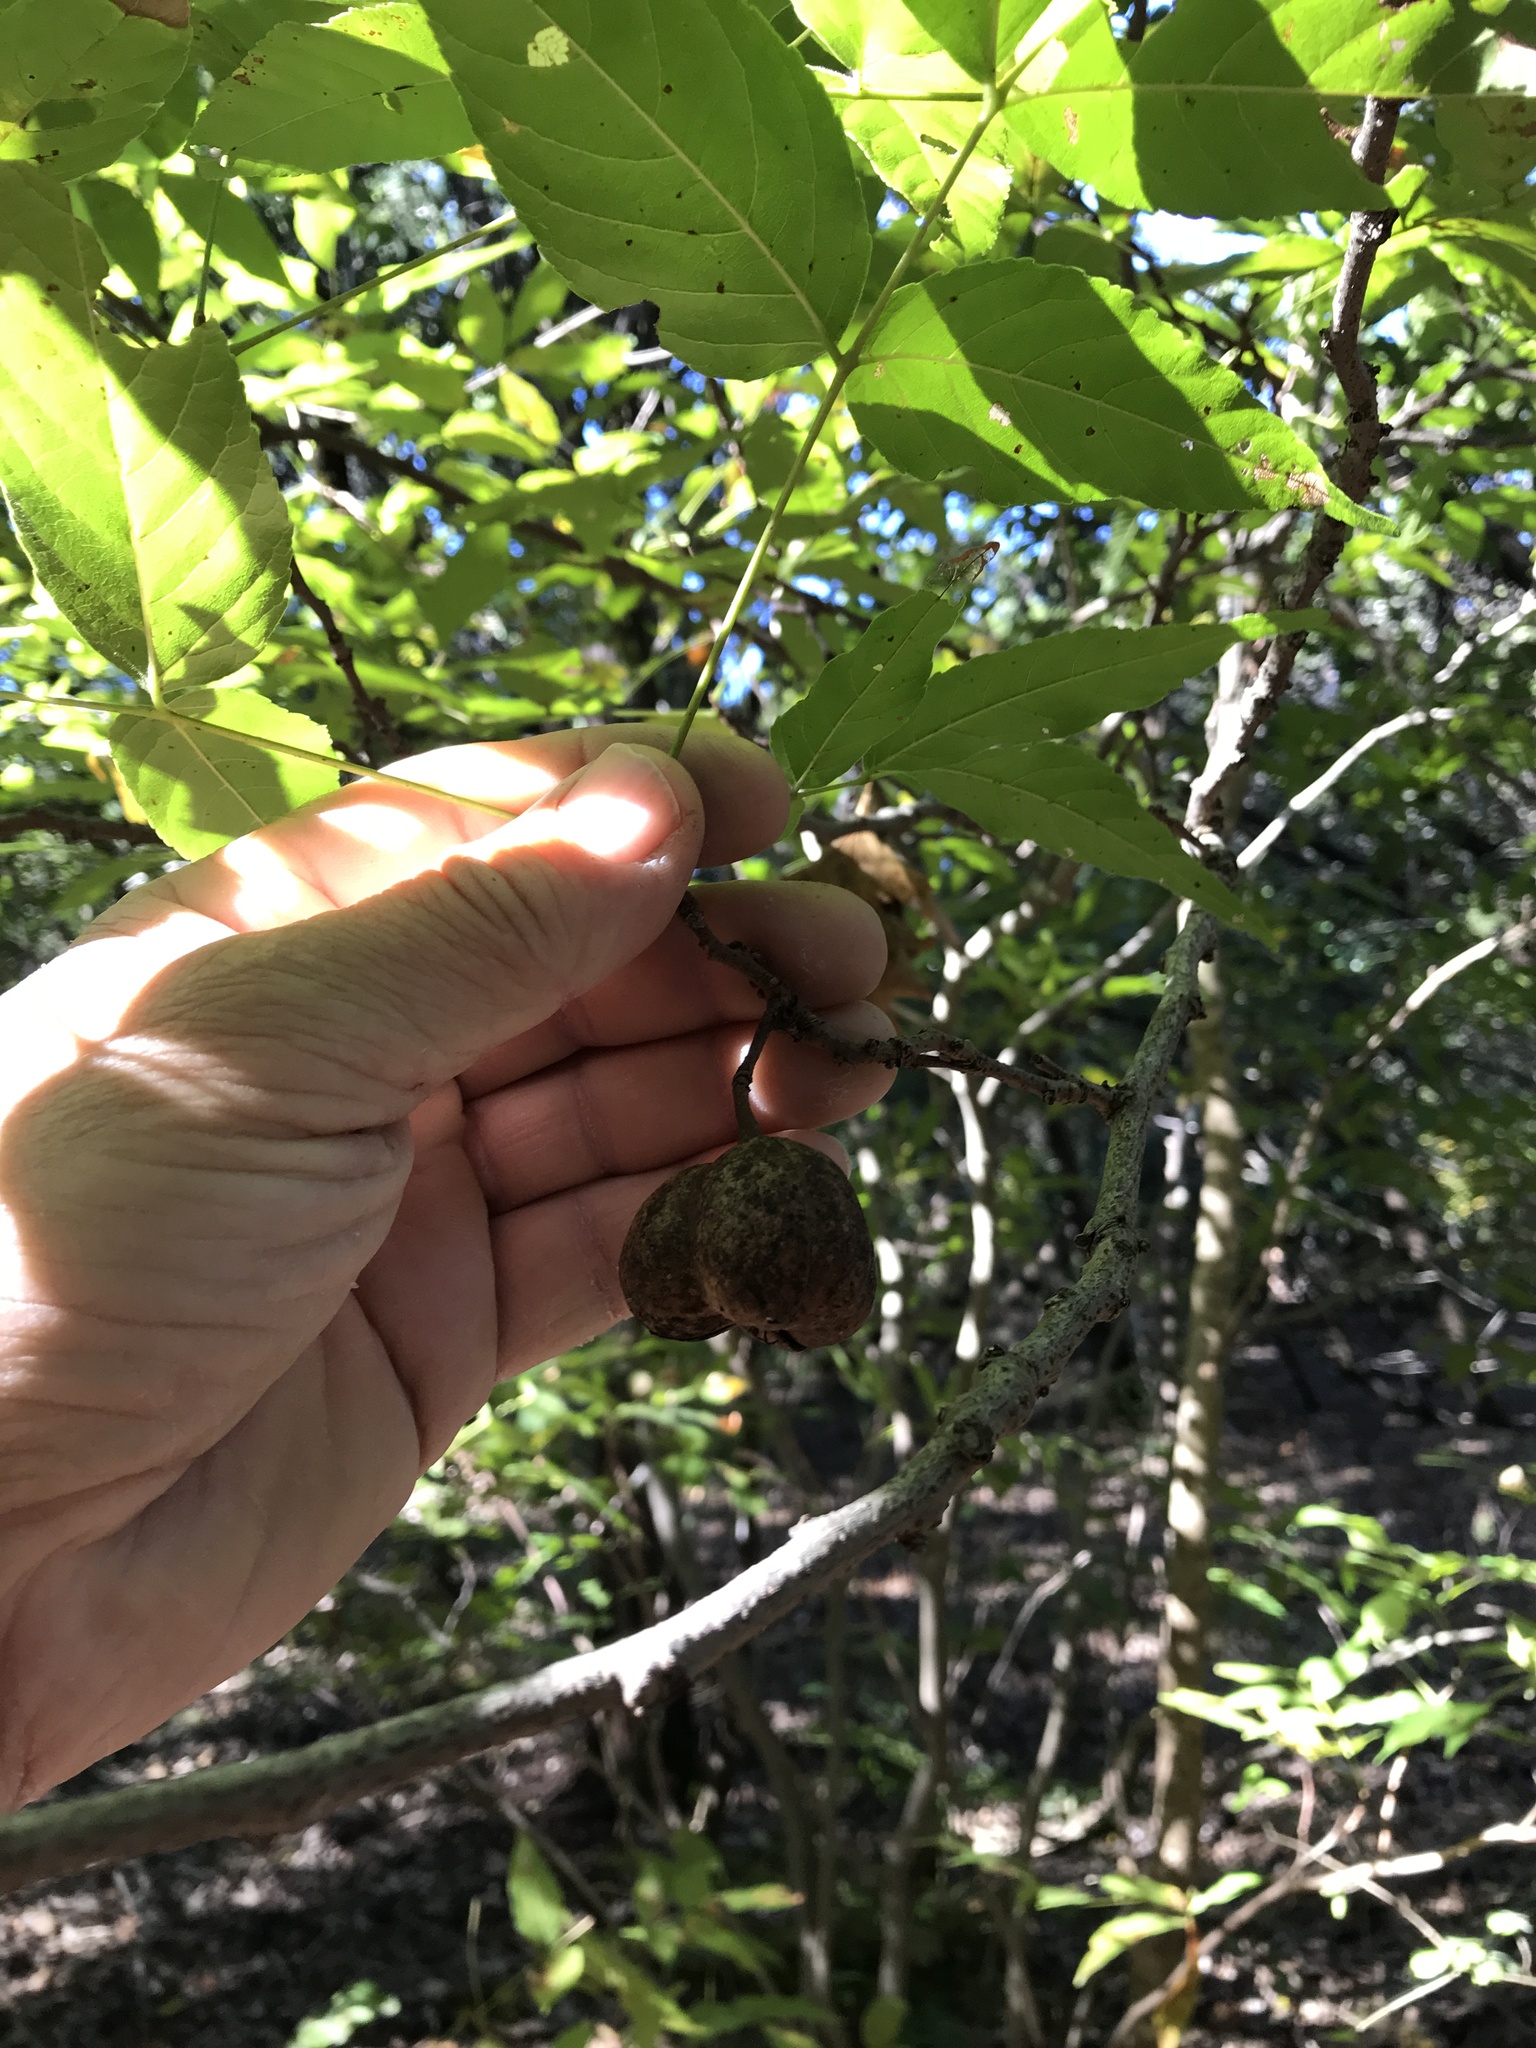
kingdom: Plantae
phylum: Tracheophyta
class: Magnoliopsida
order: Sapindales
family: Sapindaceae
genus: Ungnadia
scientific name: Ungnadia speciosa
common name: Texas-buckeye
